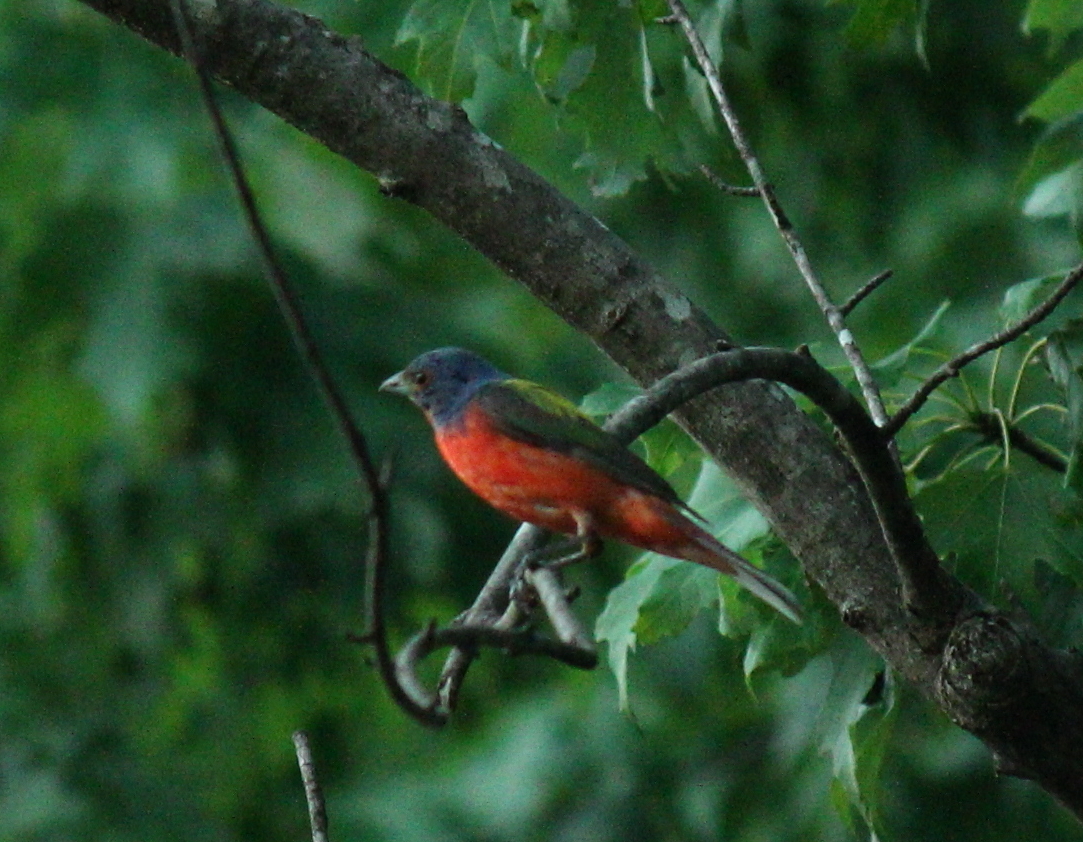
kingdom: Animalia
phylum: Chordata
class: Aves
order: Passeriformes
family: Cardinalidae
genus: Passerina
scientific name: Passerina ciris
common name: Painted bunting
